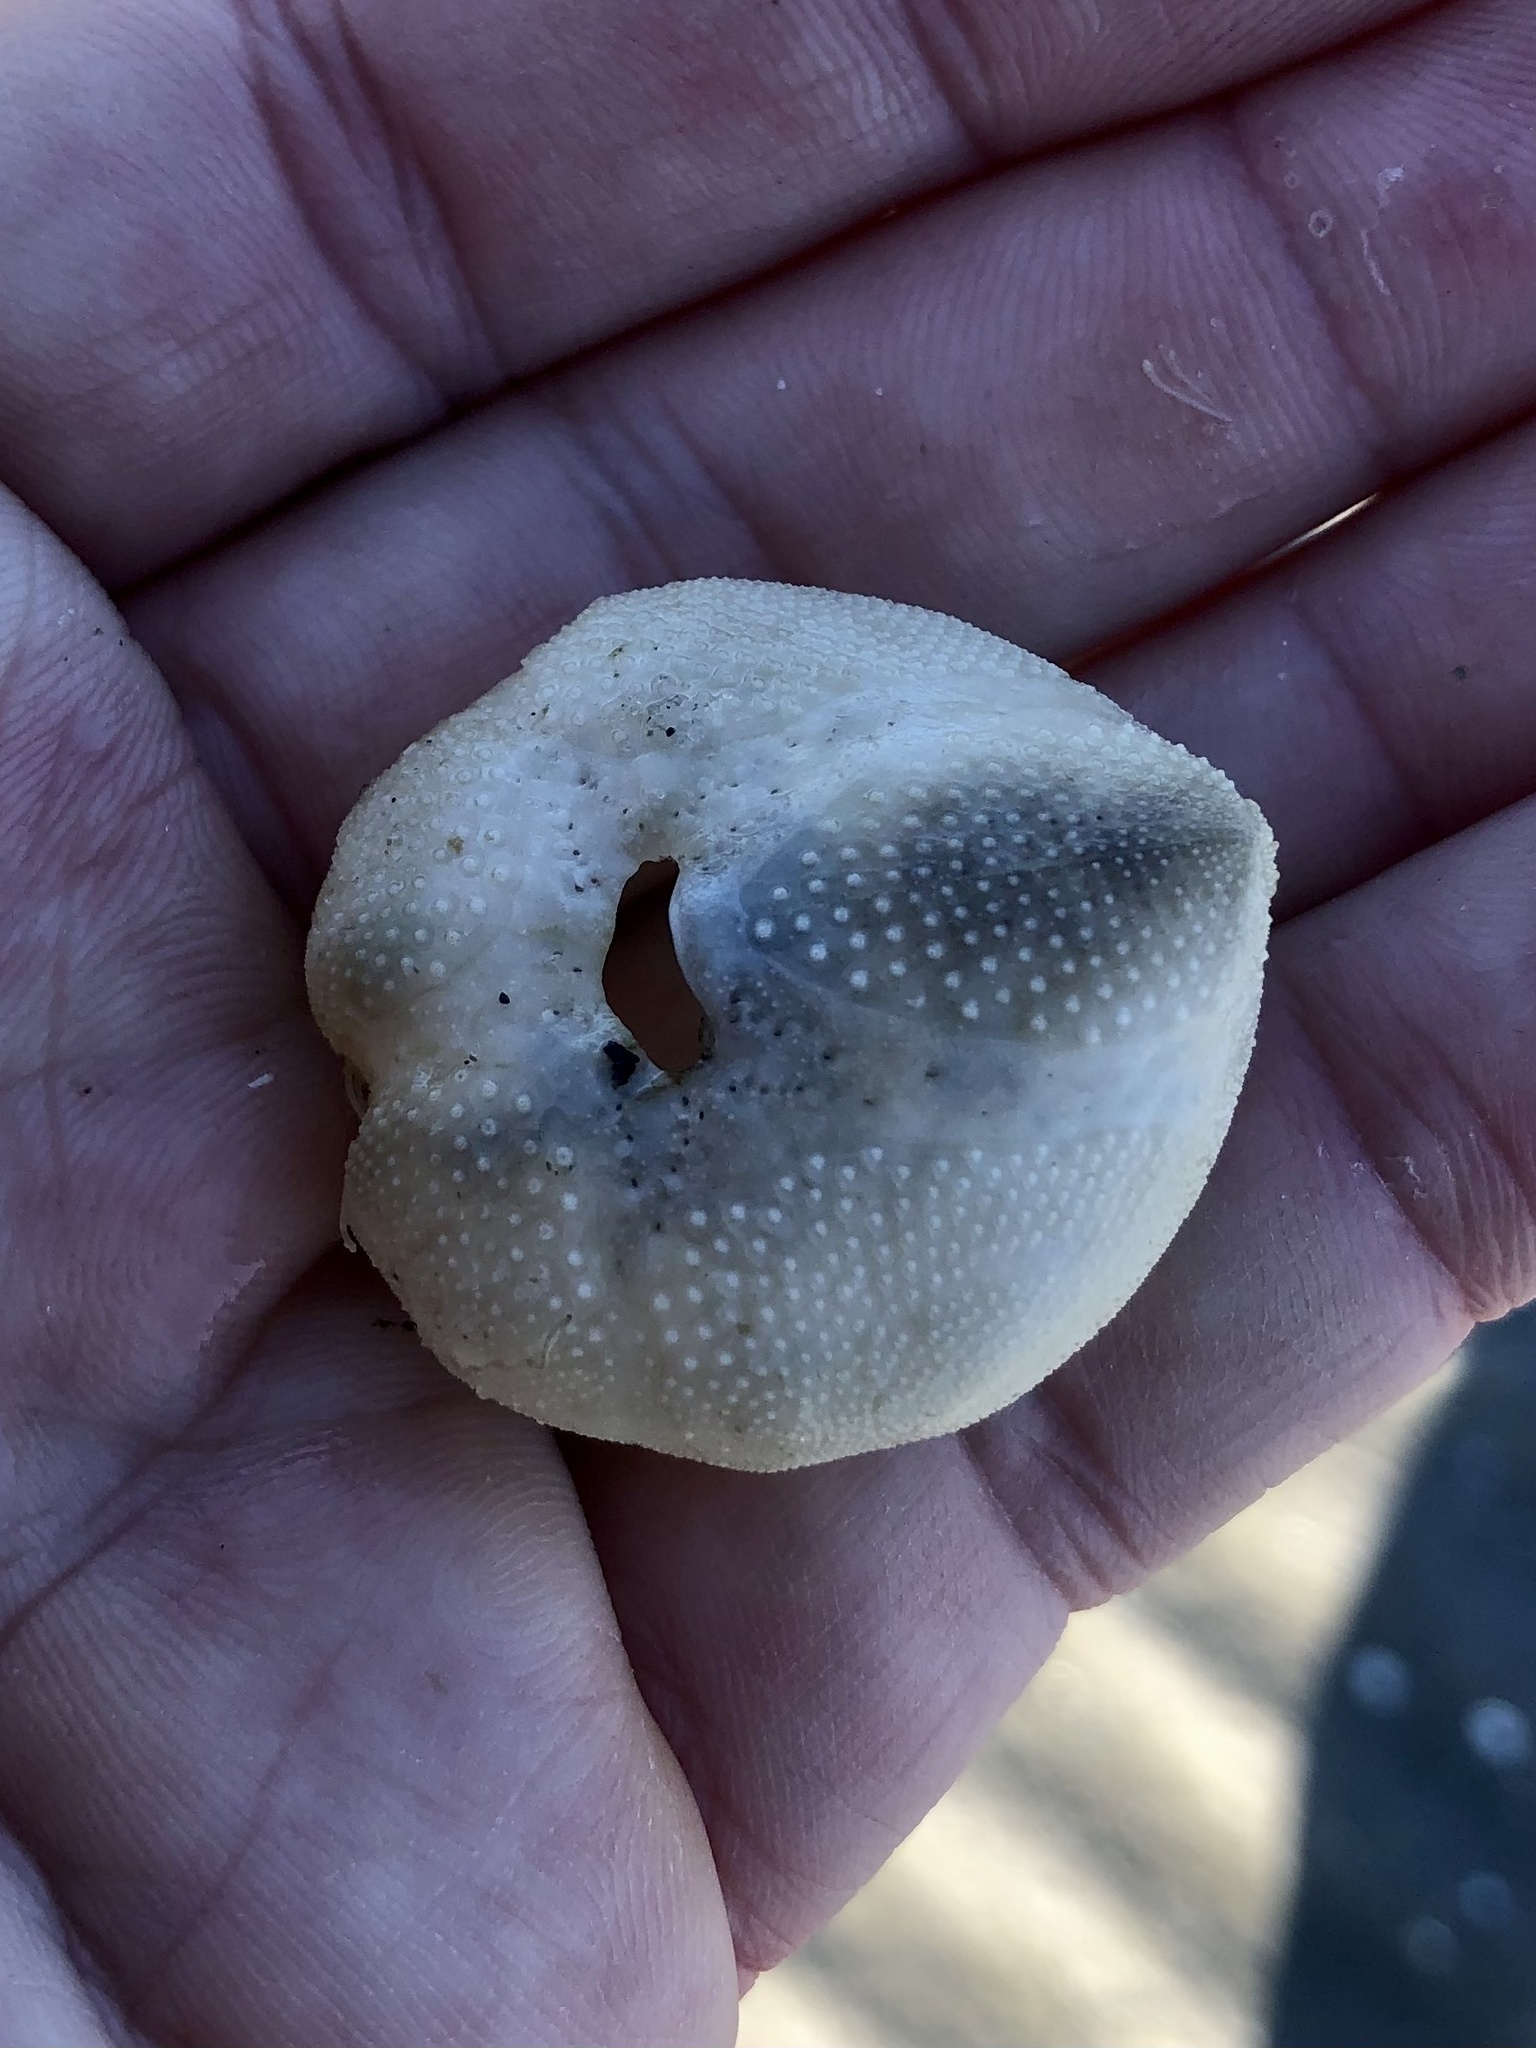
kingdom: Animalia
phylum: Echinodermata
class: Echinoidea
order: Spatangoida
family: Loveniidae
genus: Echinocardium
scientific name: Echinocardium cordatum
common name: Heart-urchin
